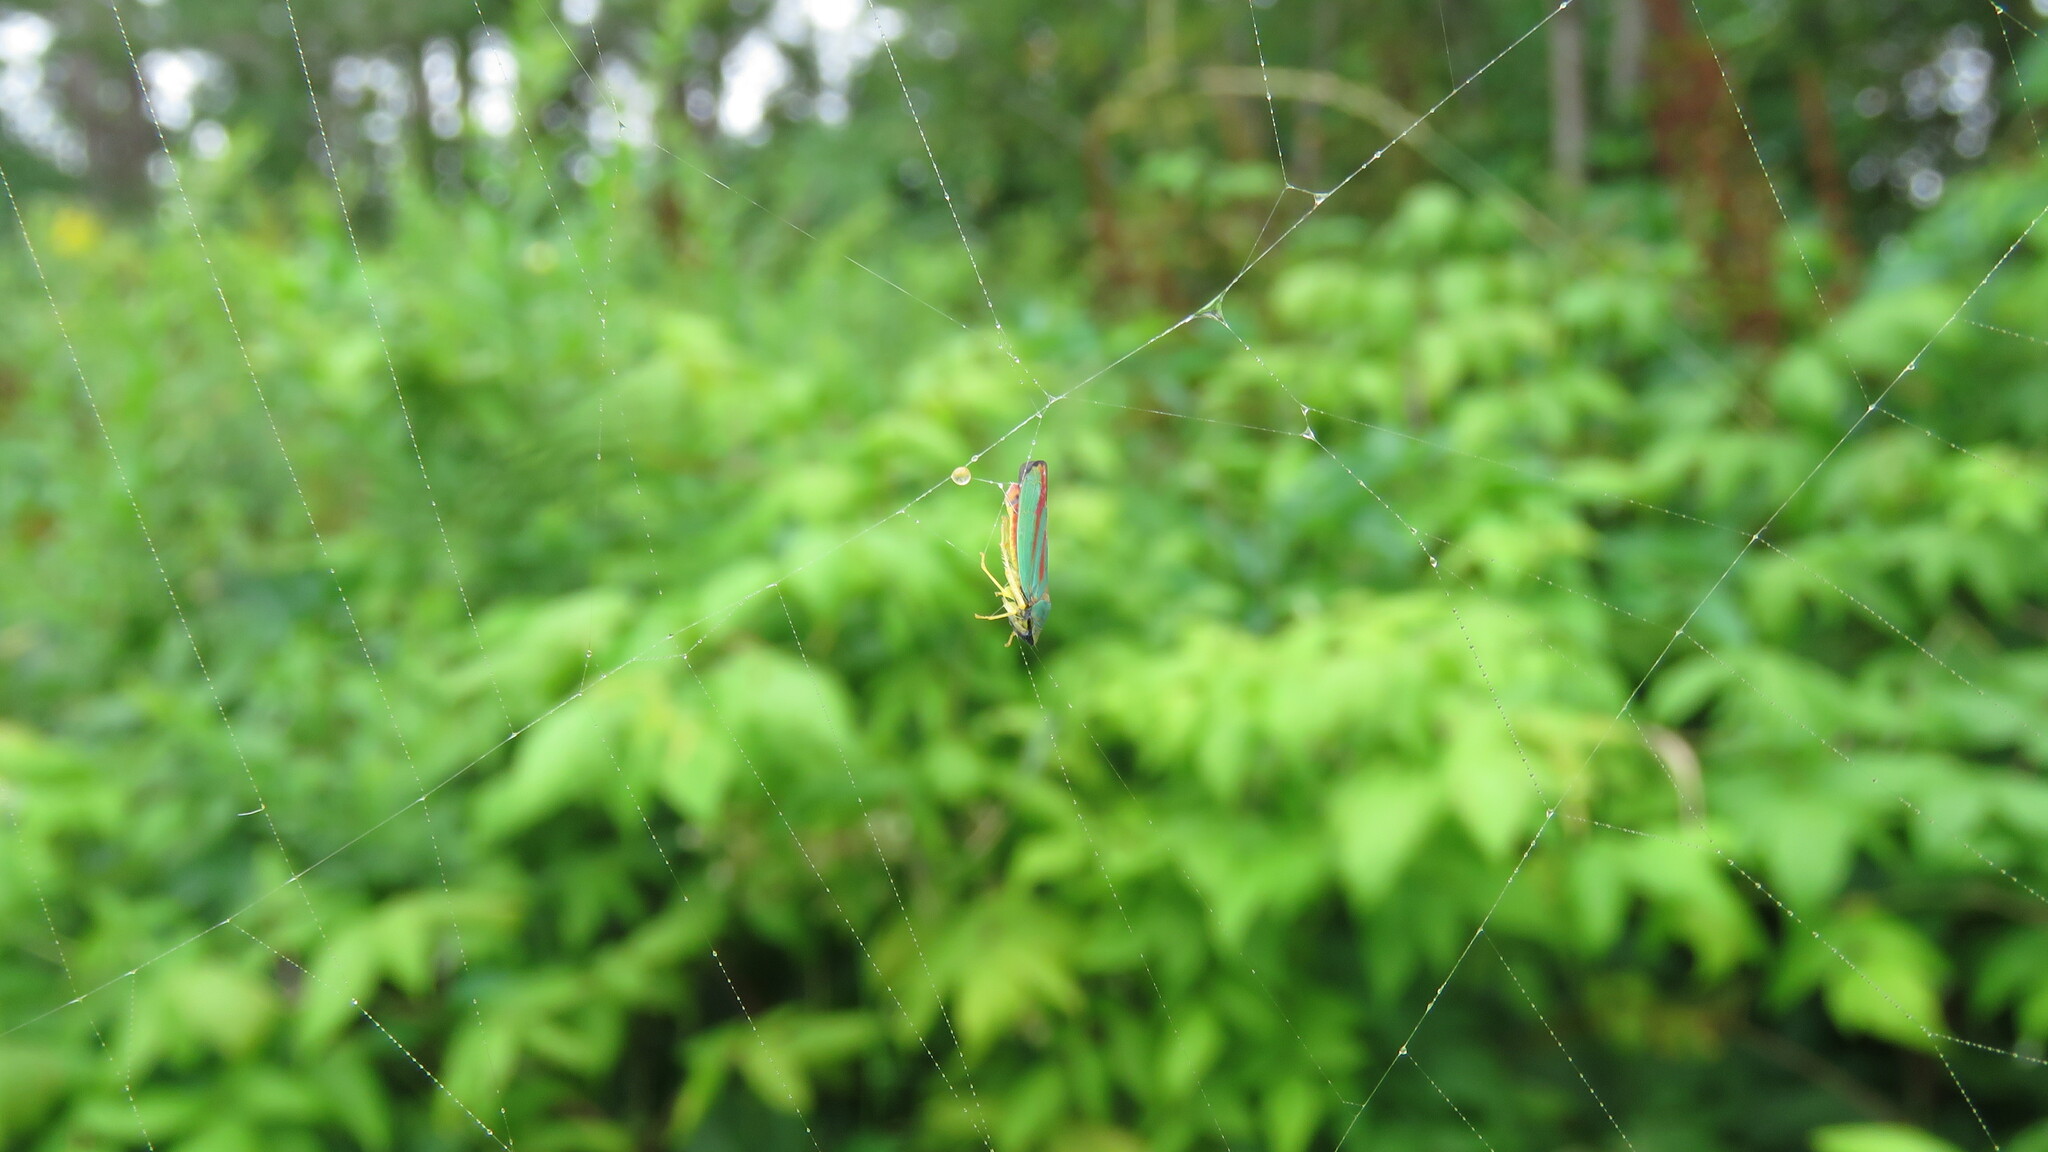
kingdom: Animalia
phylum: Arthropoda
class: Insecta
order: Hemiptera
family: Cicadellidae
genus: Graphocephala
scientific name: Graphocephala fennahi
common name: Rhododendron leafhopper
